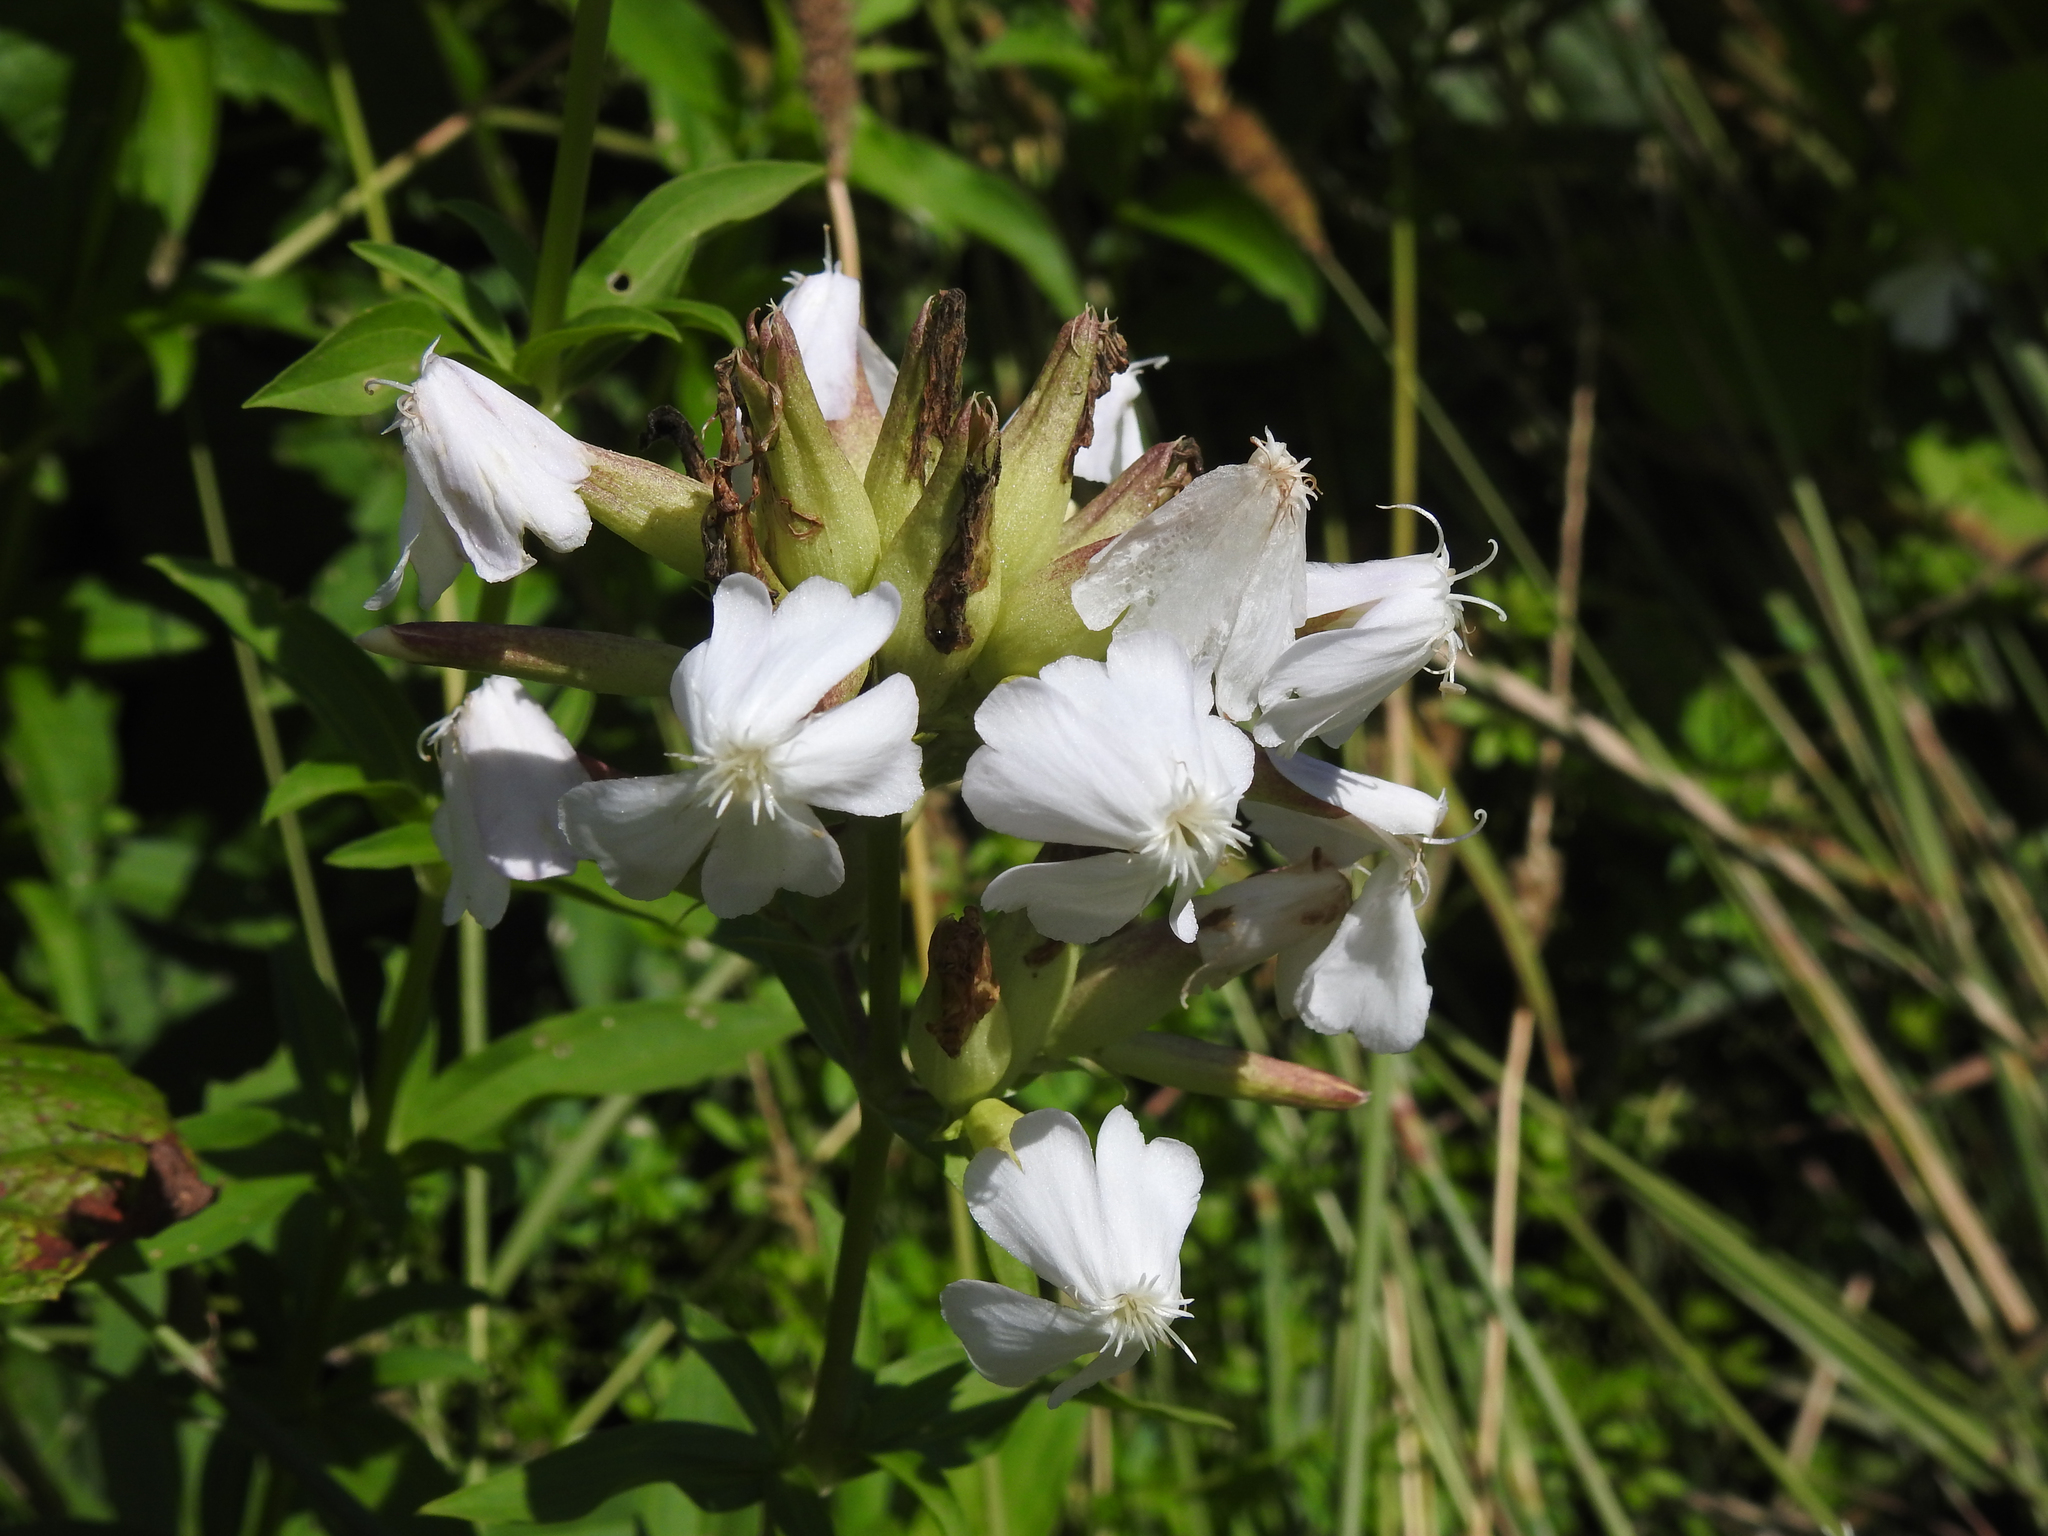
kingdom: Plantae
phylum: Tracheophyta
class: Magnoliopsida
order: Caryophyllales
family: Caryophyllaceae
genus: Saponaria
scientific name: Saponaria officinalis
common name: Soapwort
